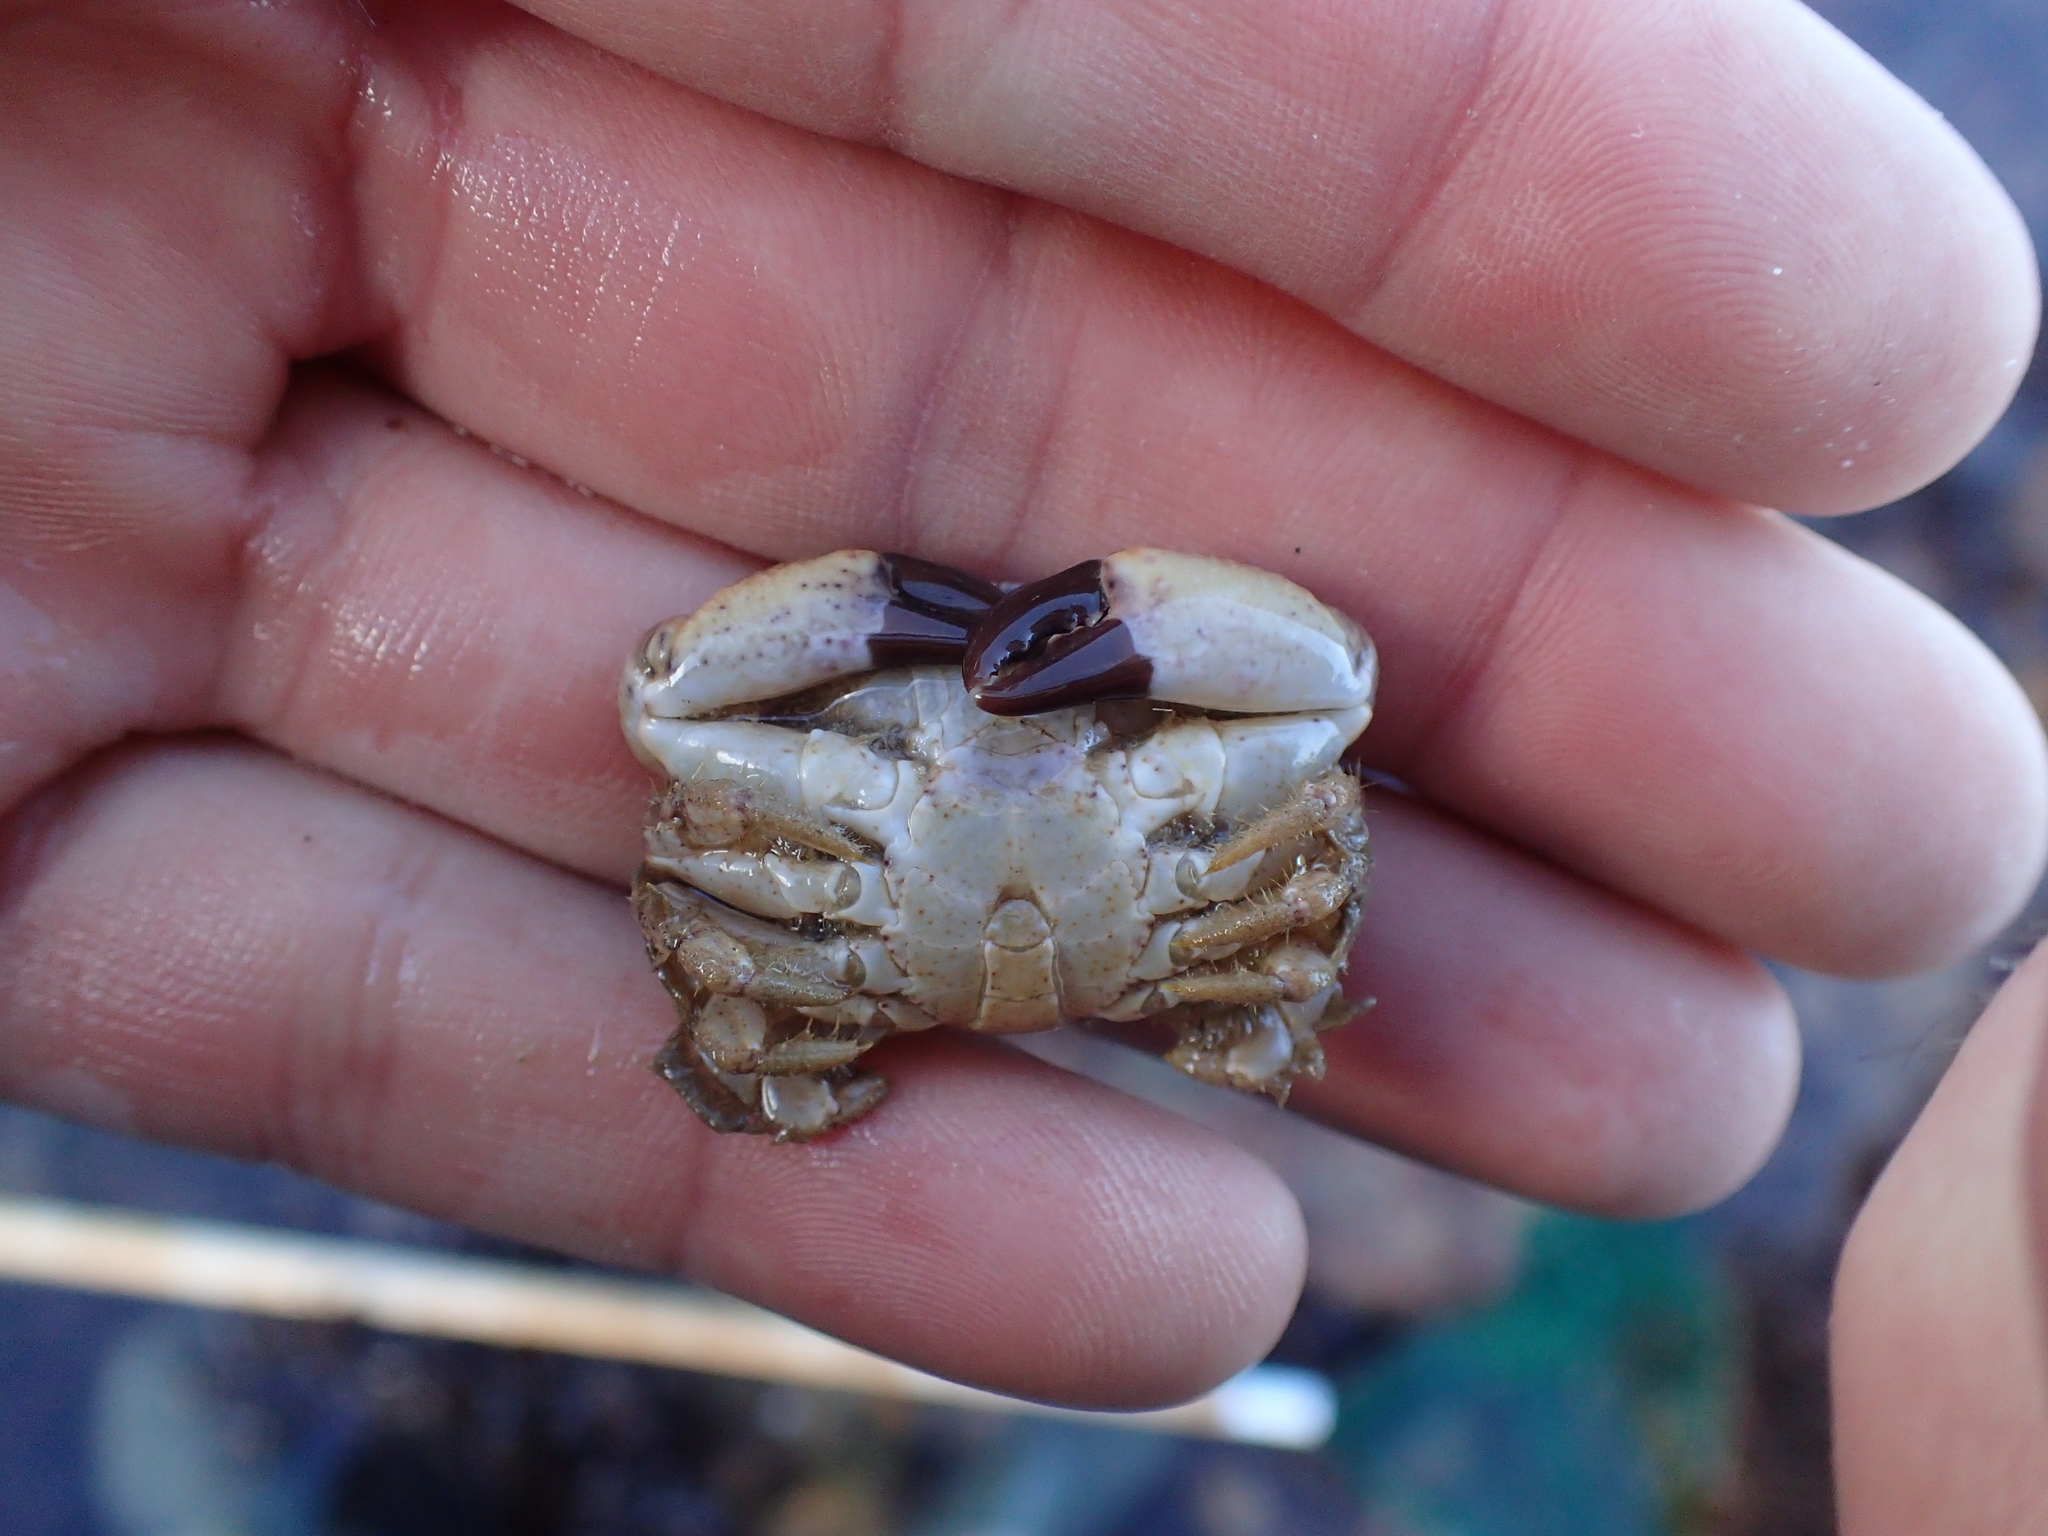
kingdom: Animalia
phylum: Arthropoda
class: Malacostraca
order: Decapoda
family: Xanthidae
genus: Xantho
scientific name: Xantho pilipes
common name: Risso's crab
